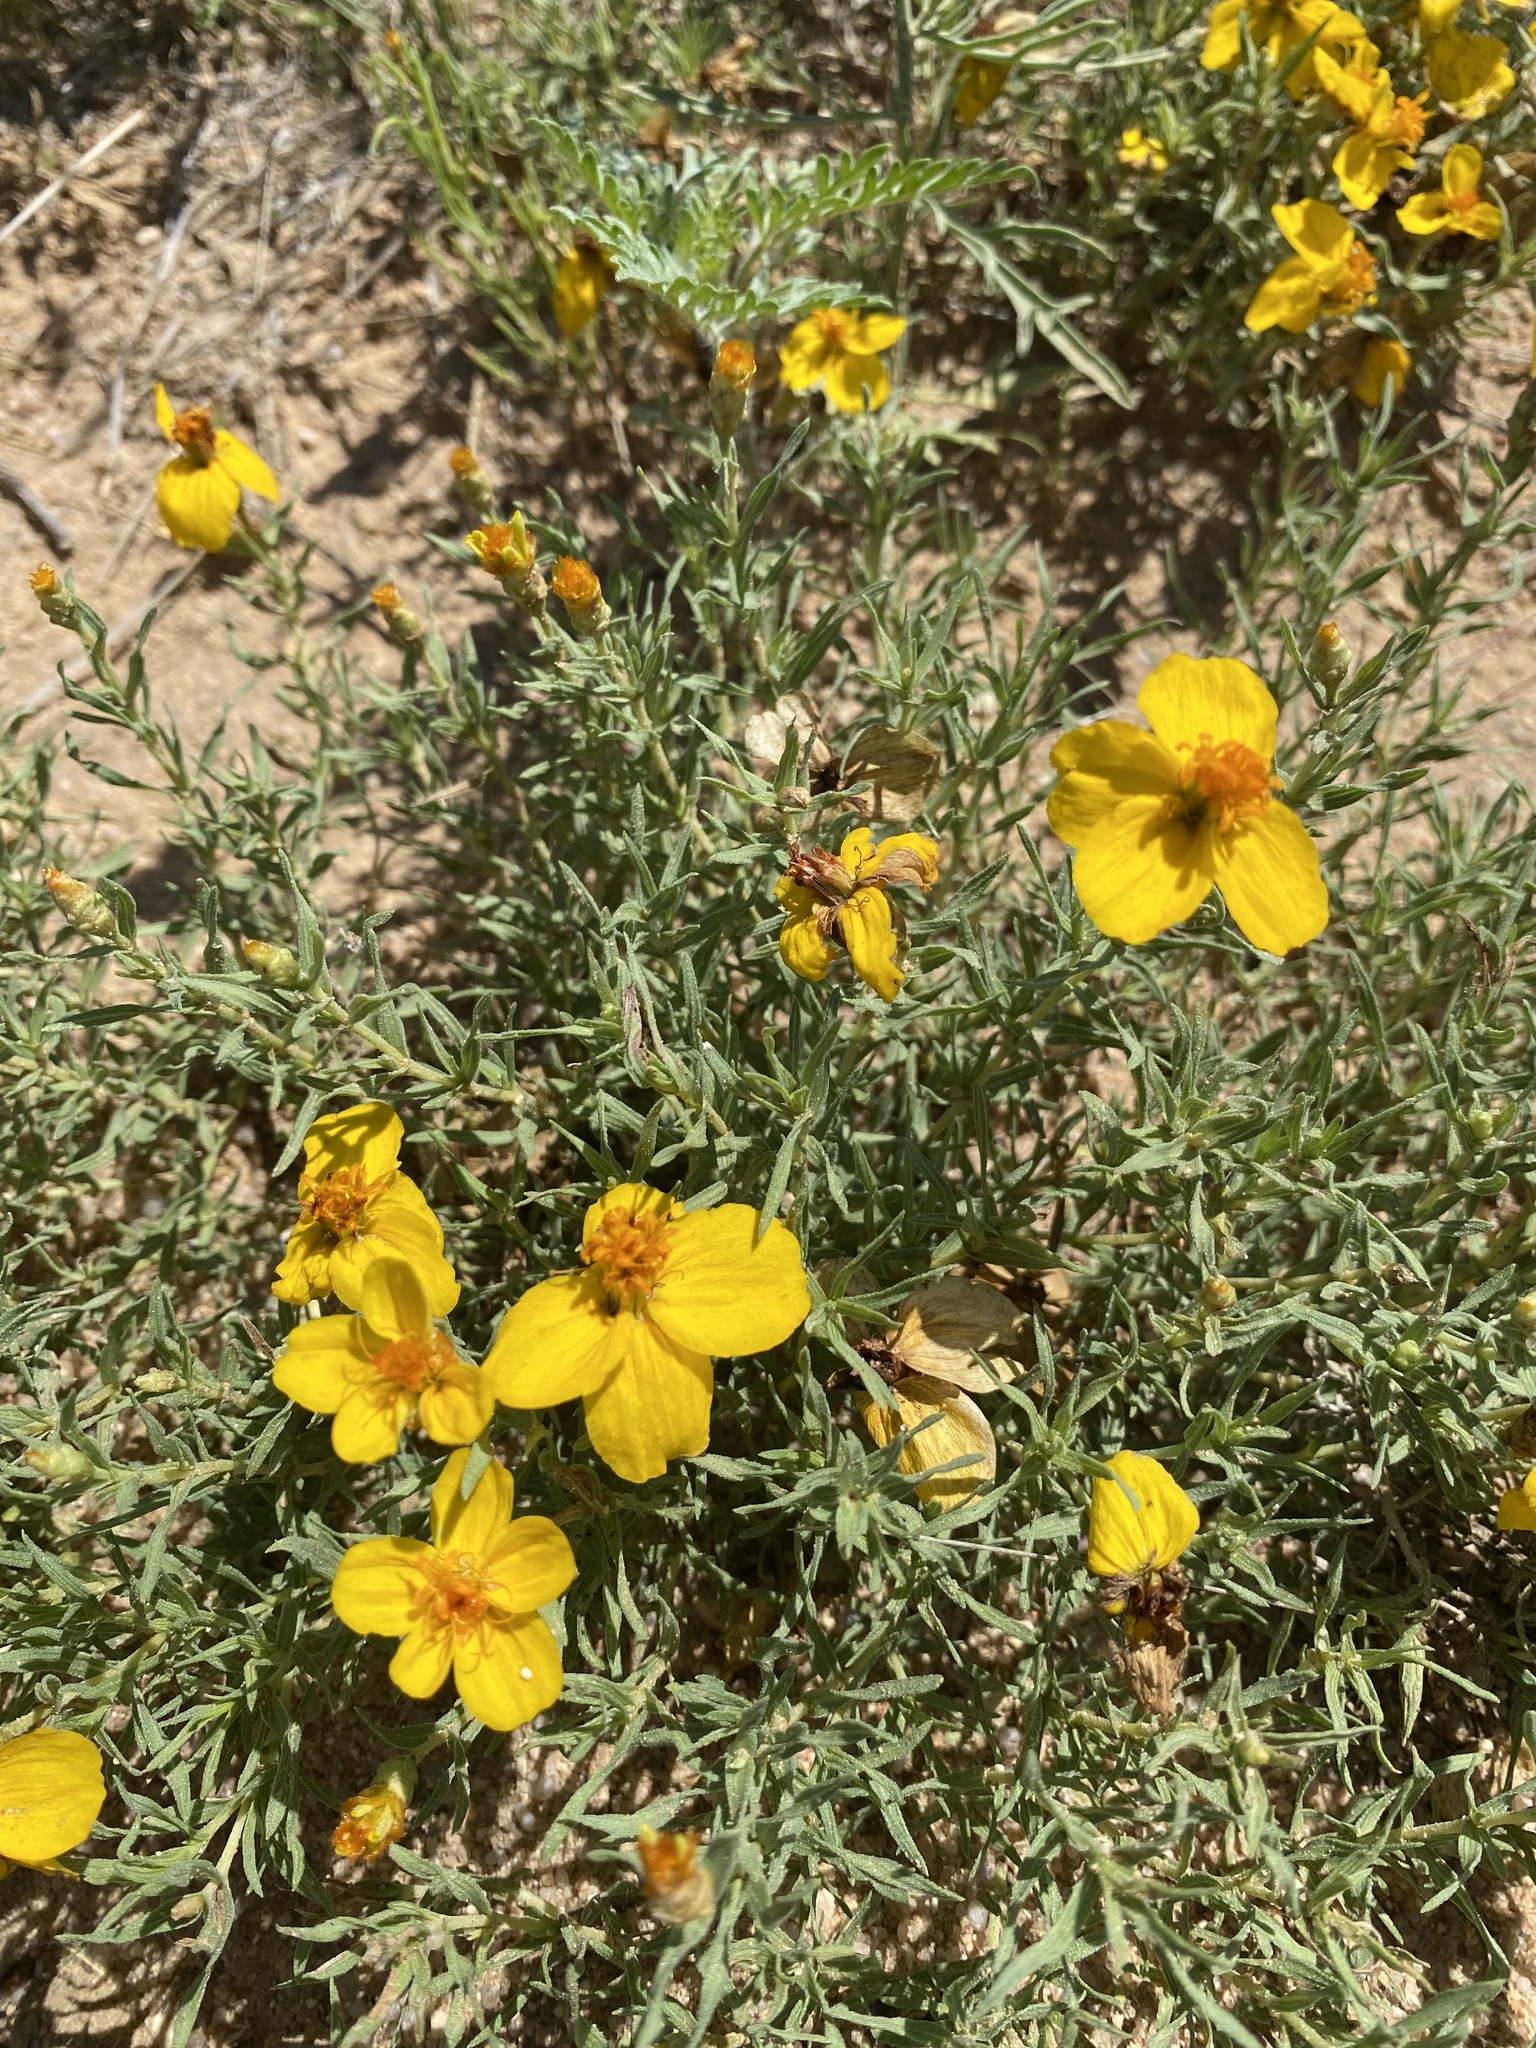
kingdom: Plantae
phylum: Tracheophyta
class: Magnoliopsida
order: Asterales
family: Asteraceae
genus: Zinnia
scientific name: Zinnia grandiflora
